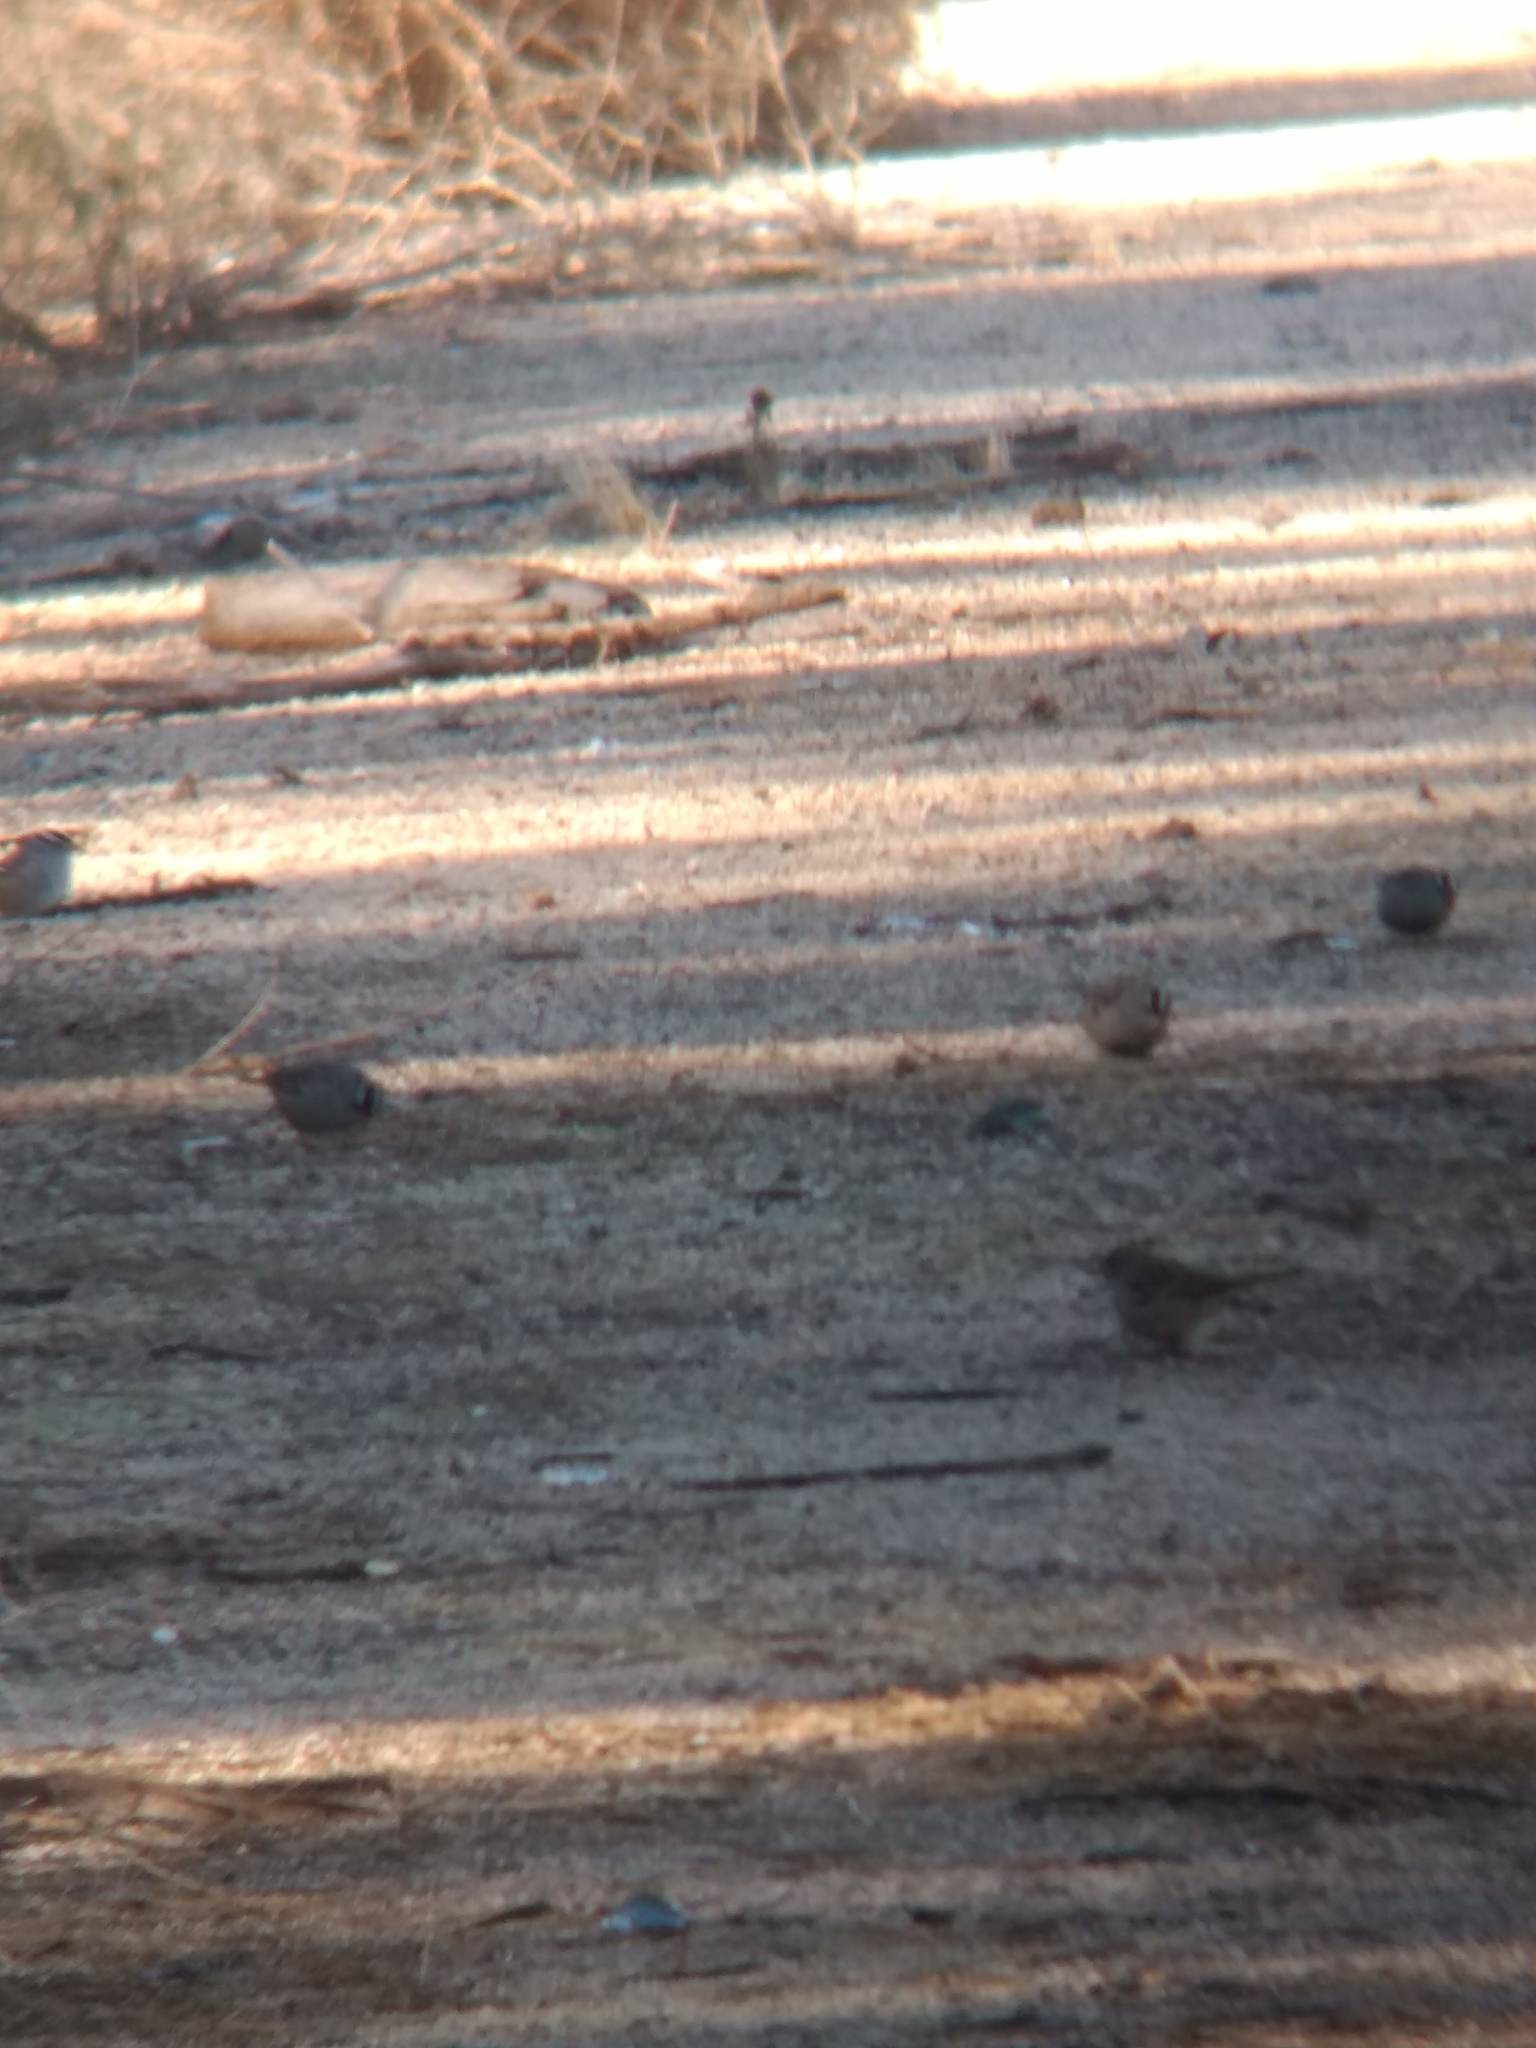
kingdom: Animalia
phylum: Chordata
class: Aves
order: Passeriformes
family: Passerellidae
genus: Zonotrichia
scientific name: Zonotrichia leucophrys
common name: White-crowned sparrow
